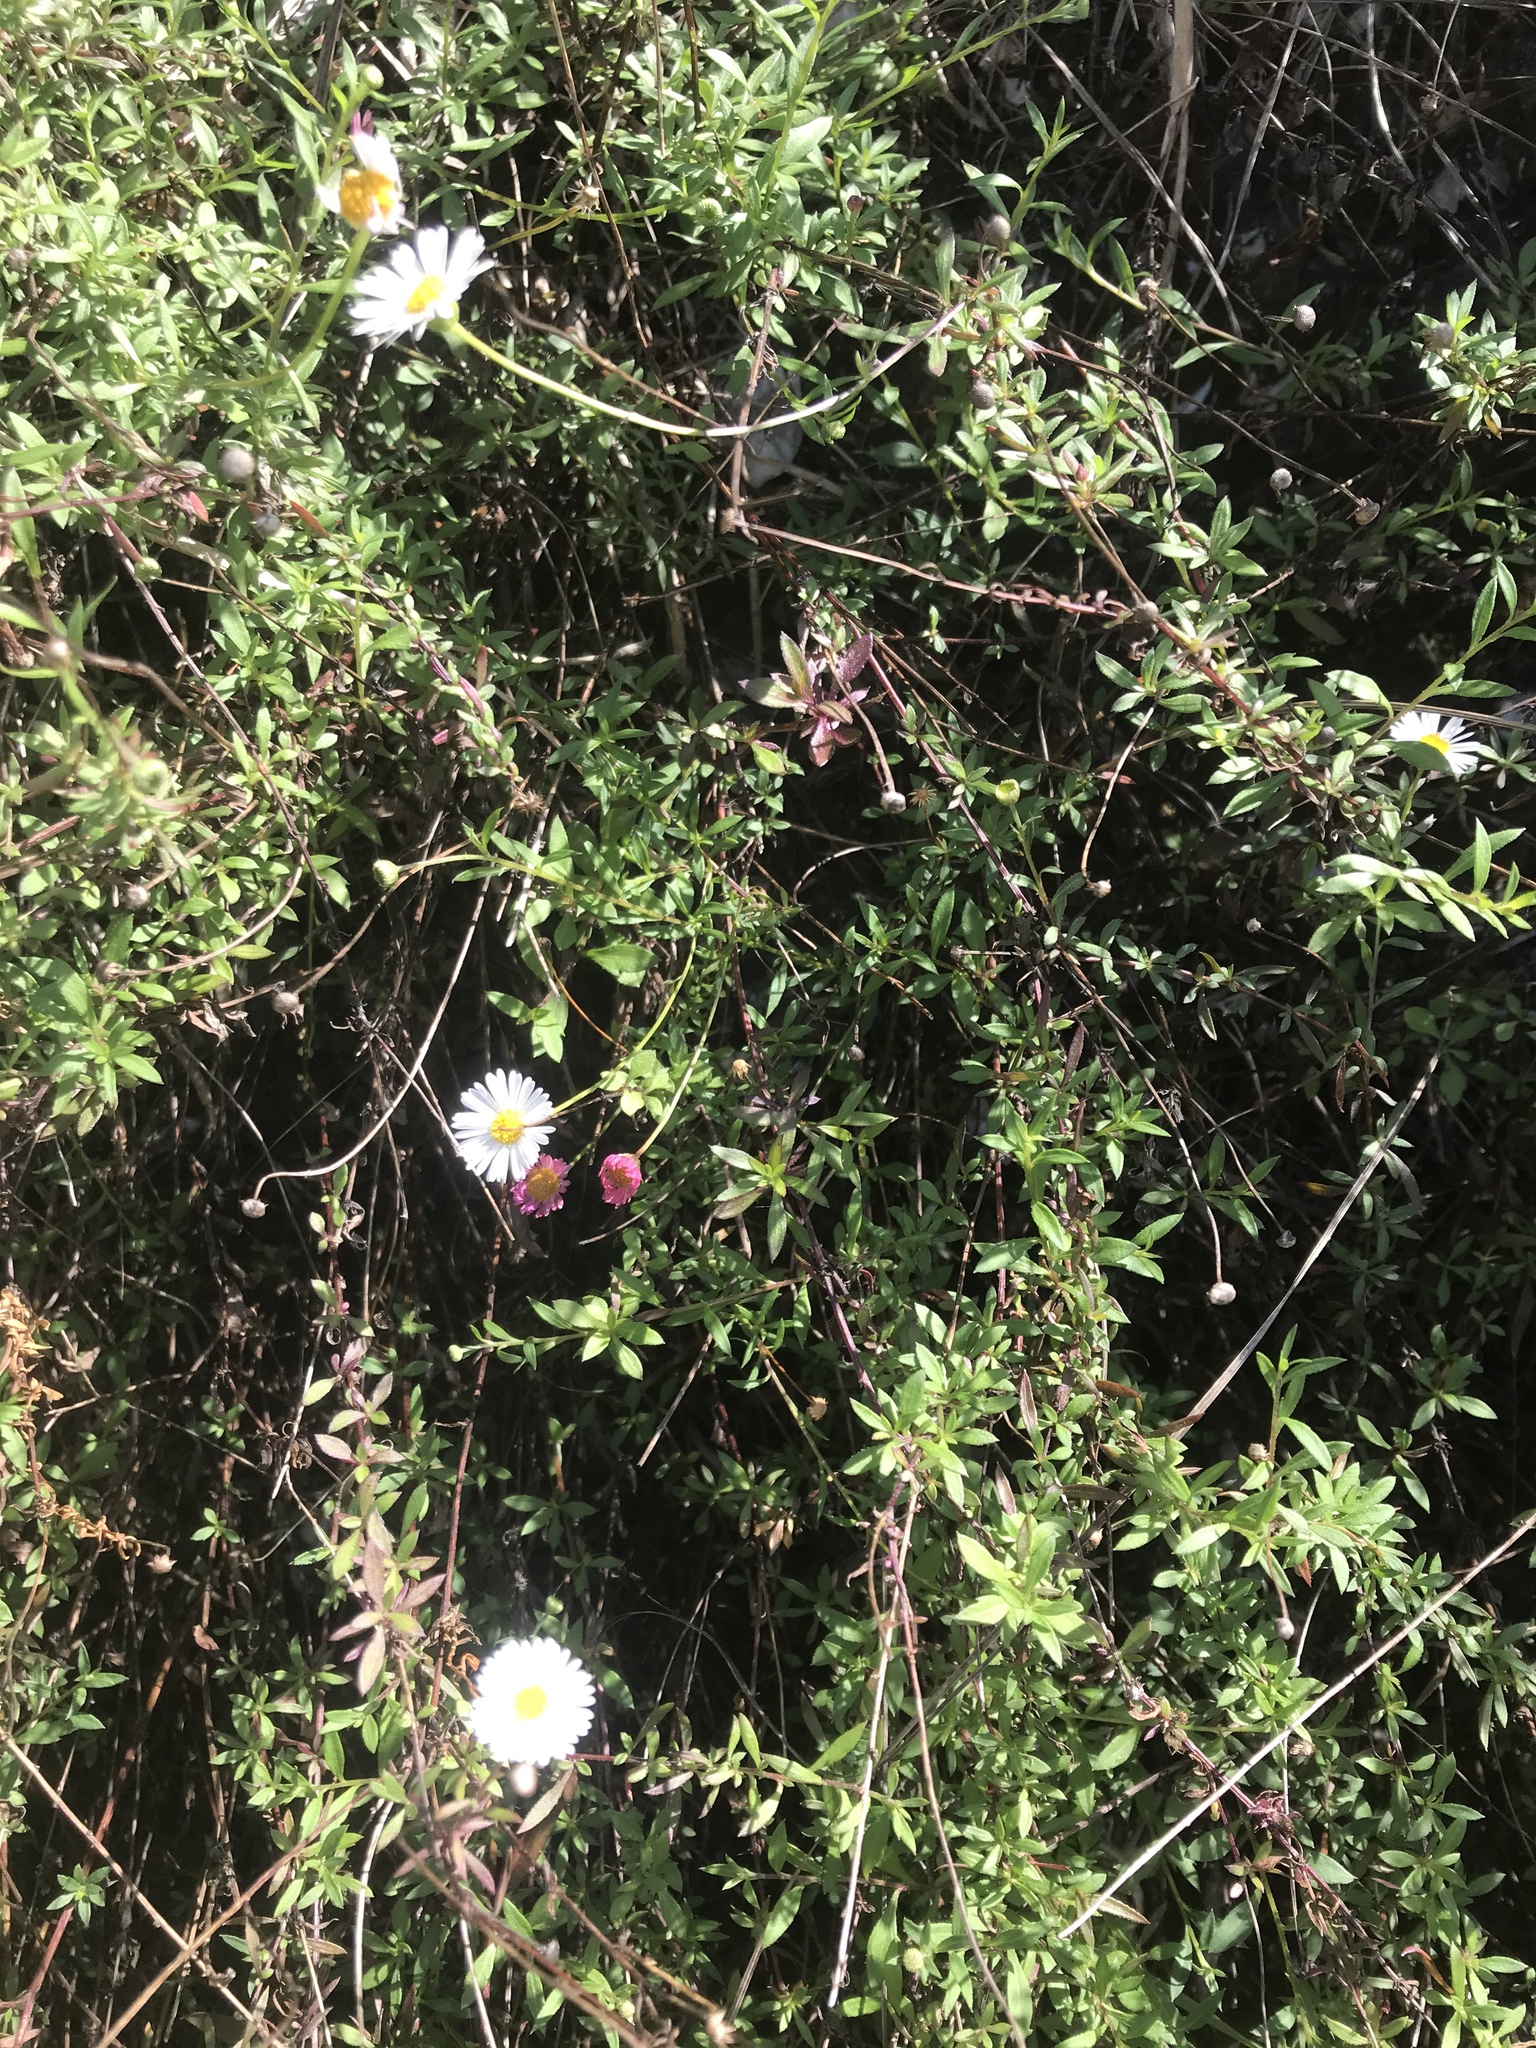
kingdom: Plantae
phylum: Tracheophyta
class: Magnoliopsida
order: Asterales
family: Asteraceae
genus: Erigeron
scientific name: Erigeron karvinskianus
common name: Mexican fleabane
